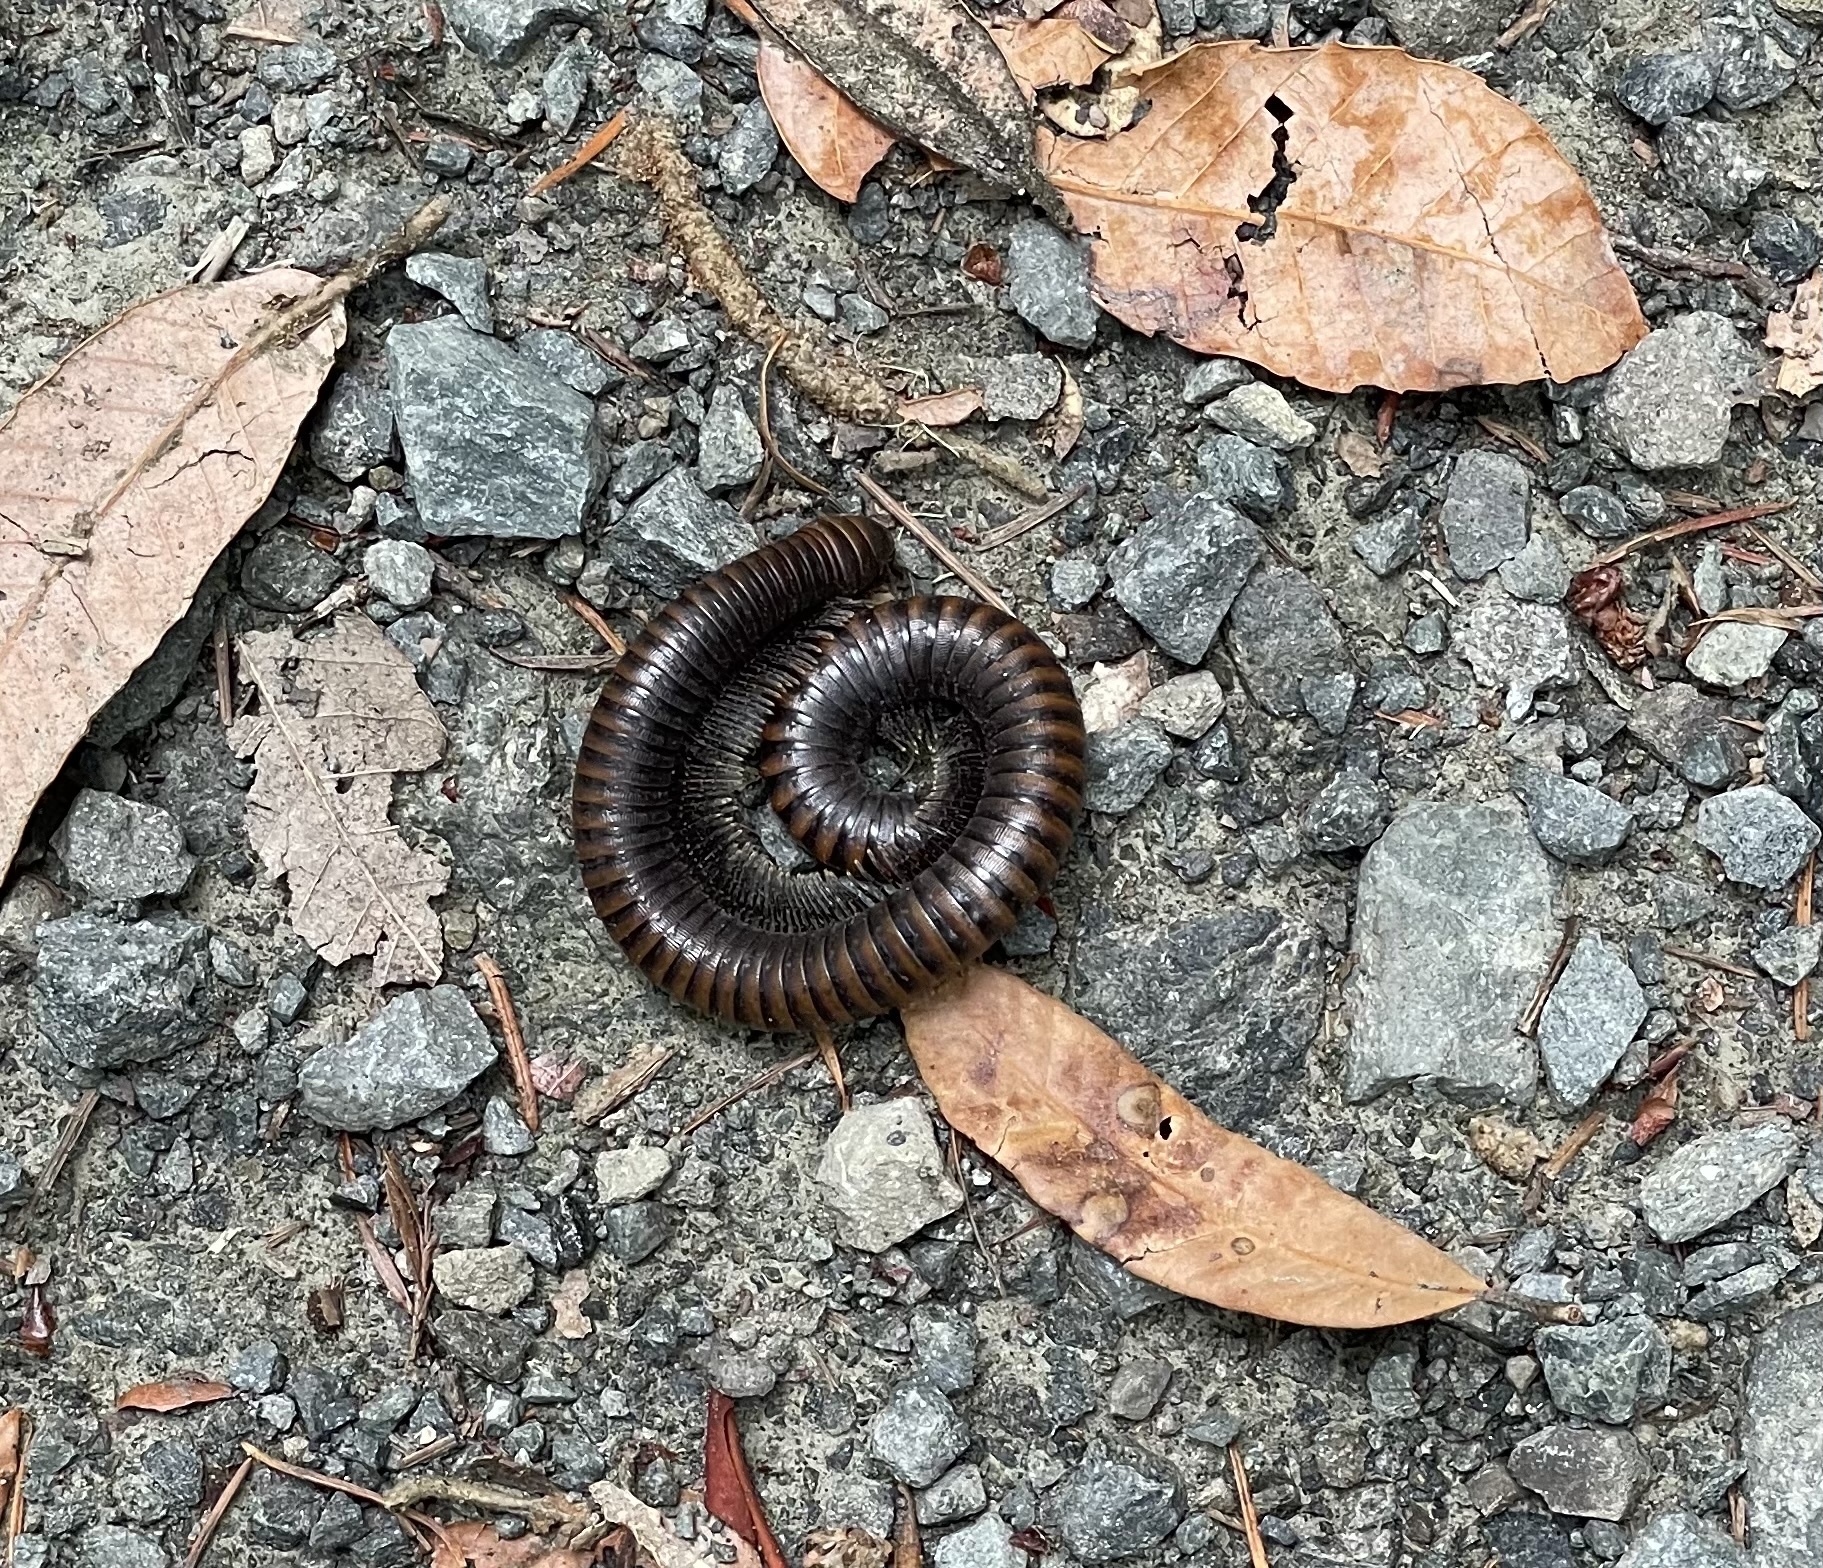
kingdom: Animalia
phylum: Arthropoda
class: Diplopoda
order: Julida
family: Paeromopodidae
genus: Paeromopus
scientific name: Paeromopus angusticeps
